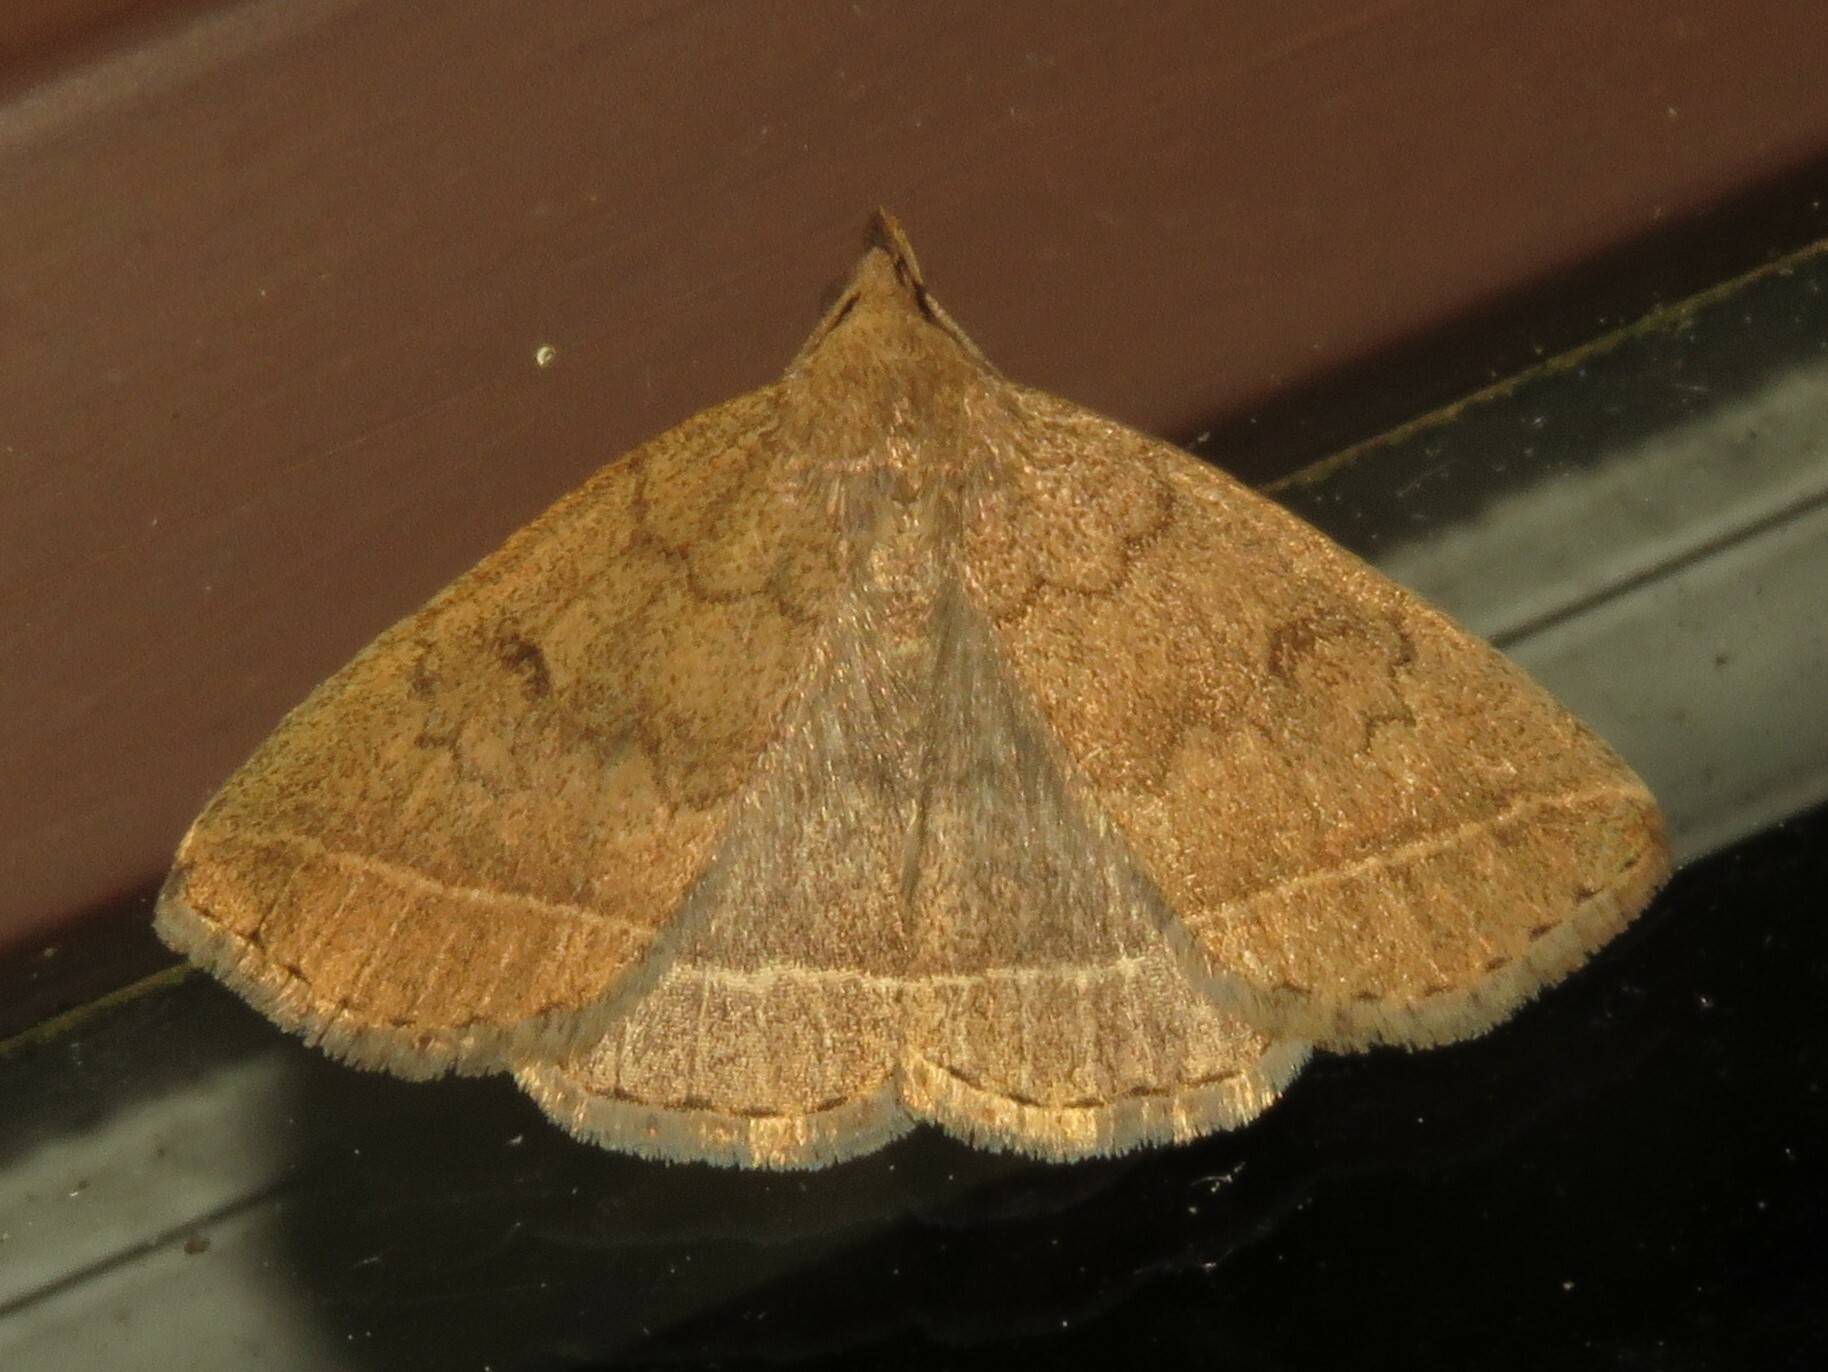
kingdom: Animalia
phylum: Arthropoda
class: Insecta
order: Lepidoptera
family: Erebidae
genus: Zanclognatha
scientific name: Zanclognatha jacchusalis
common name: Yellowish zanclognatha
